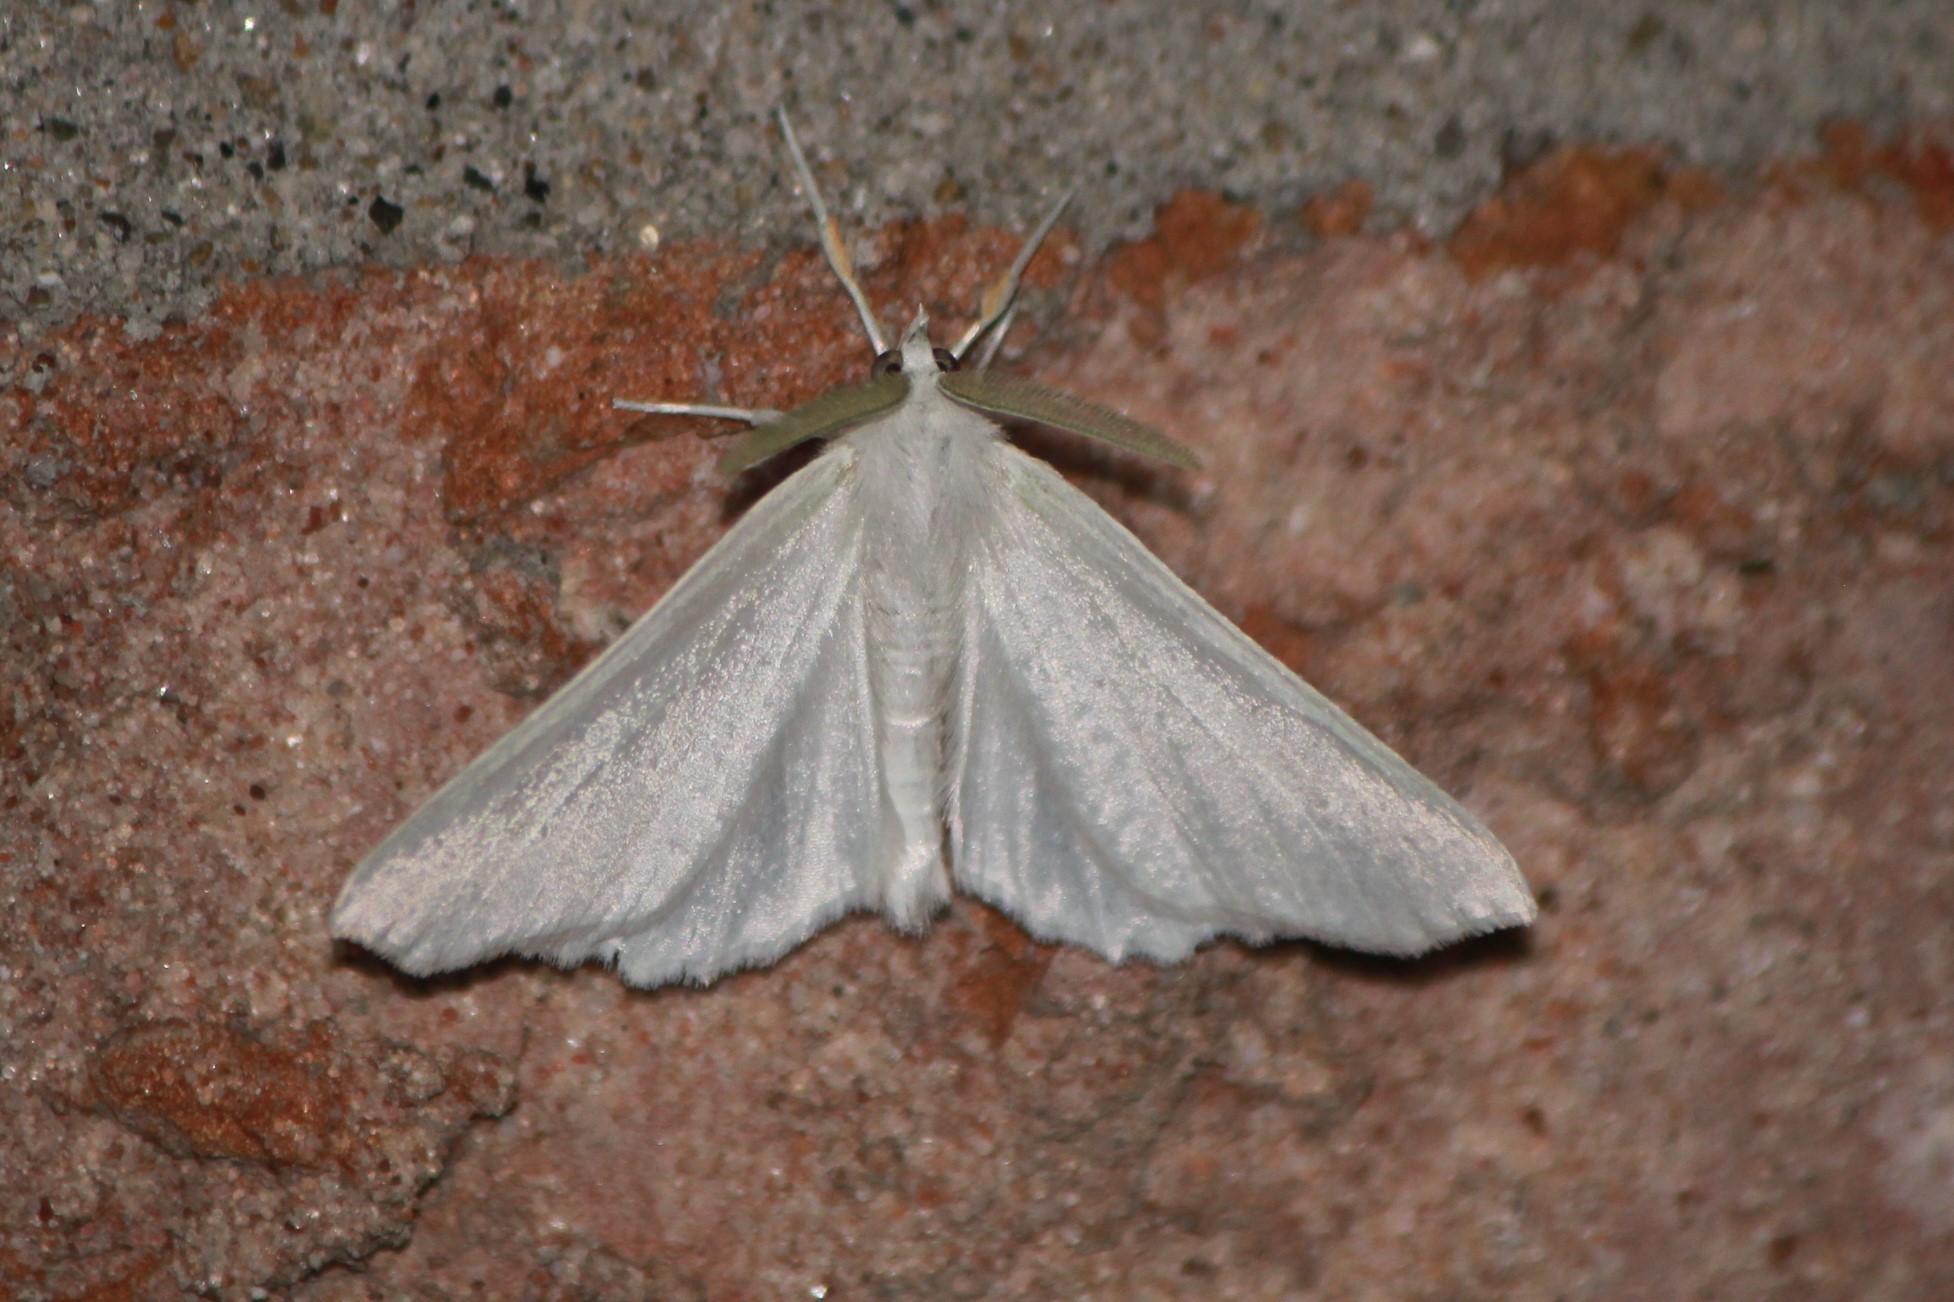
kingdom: Animalia
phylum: Arthropoda
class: Insecta
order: Lepidoptera
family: Geometridae
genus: Ennomos
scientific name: Ennomos subsignaria
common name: Elm spanworm
